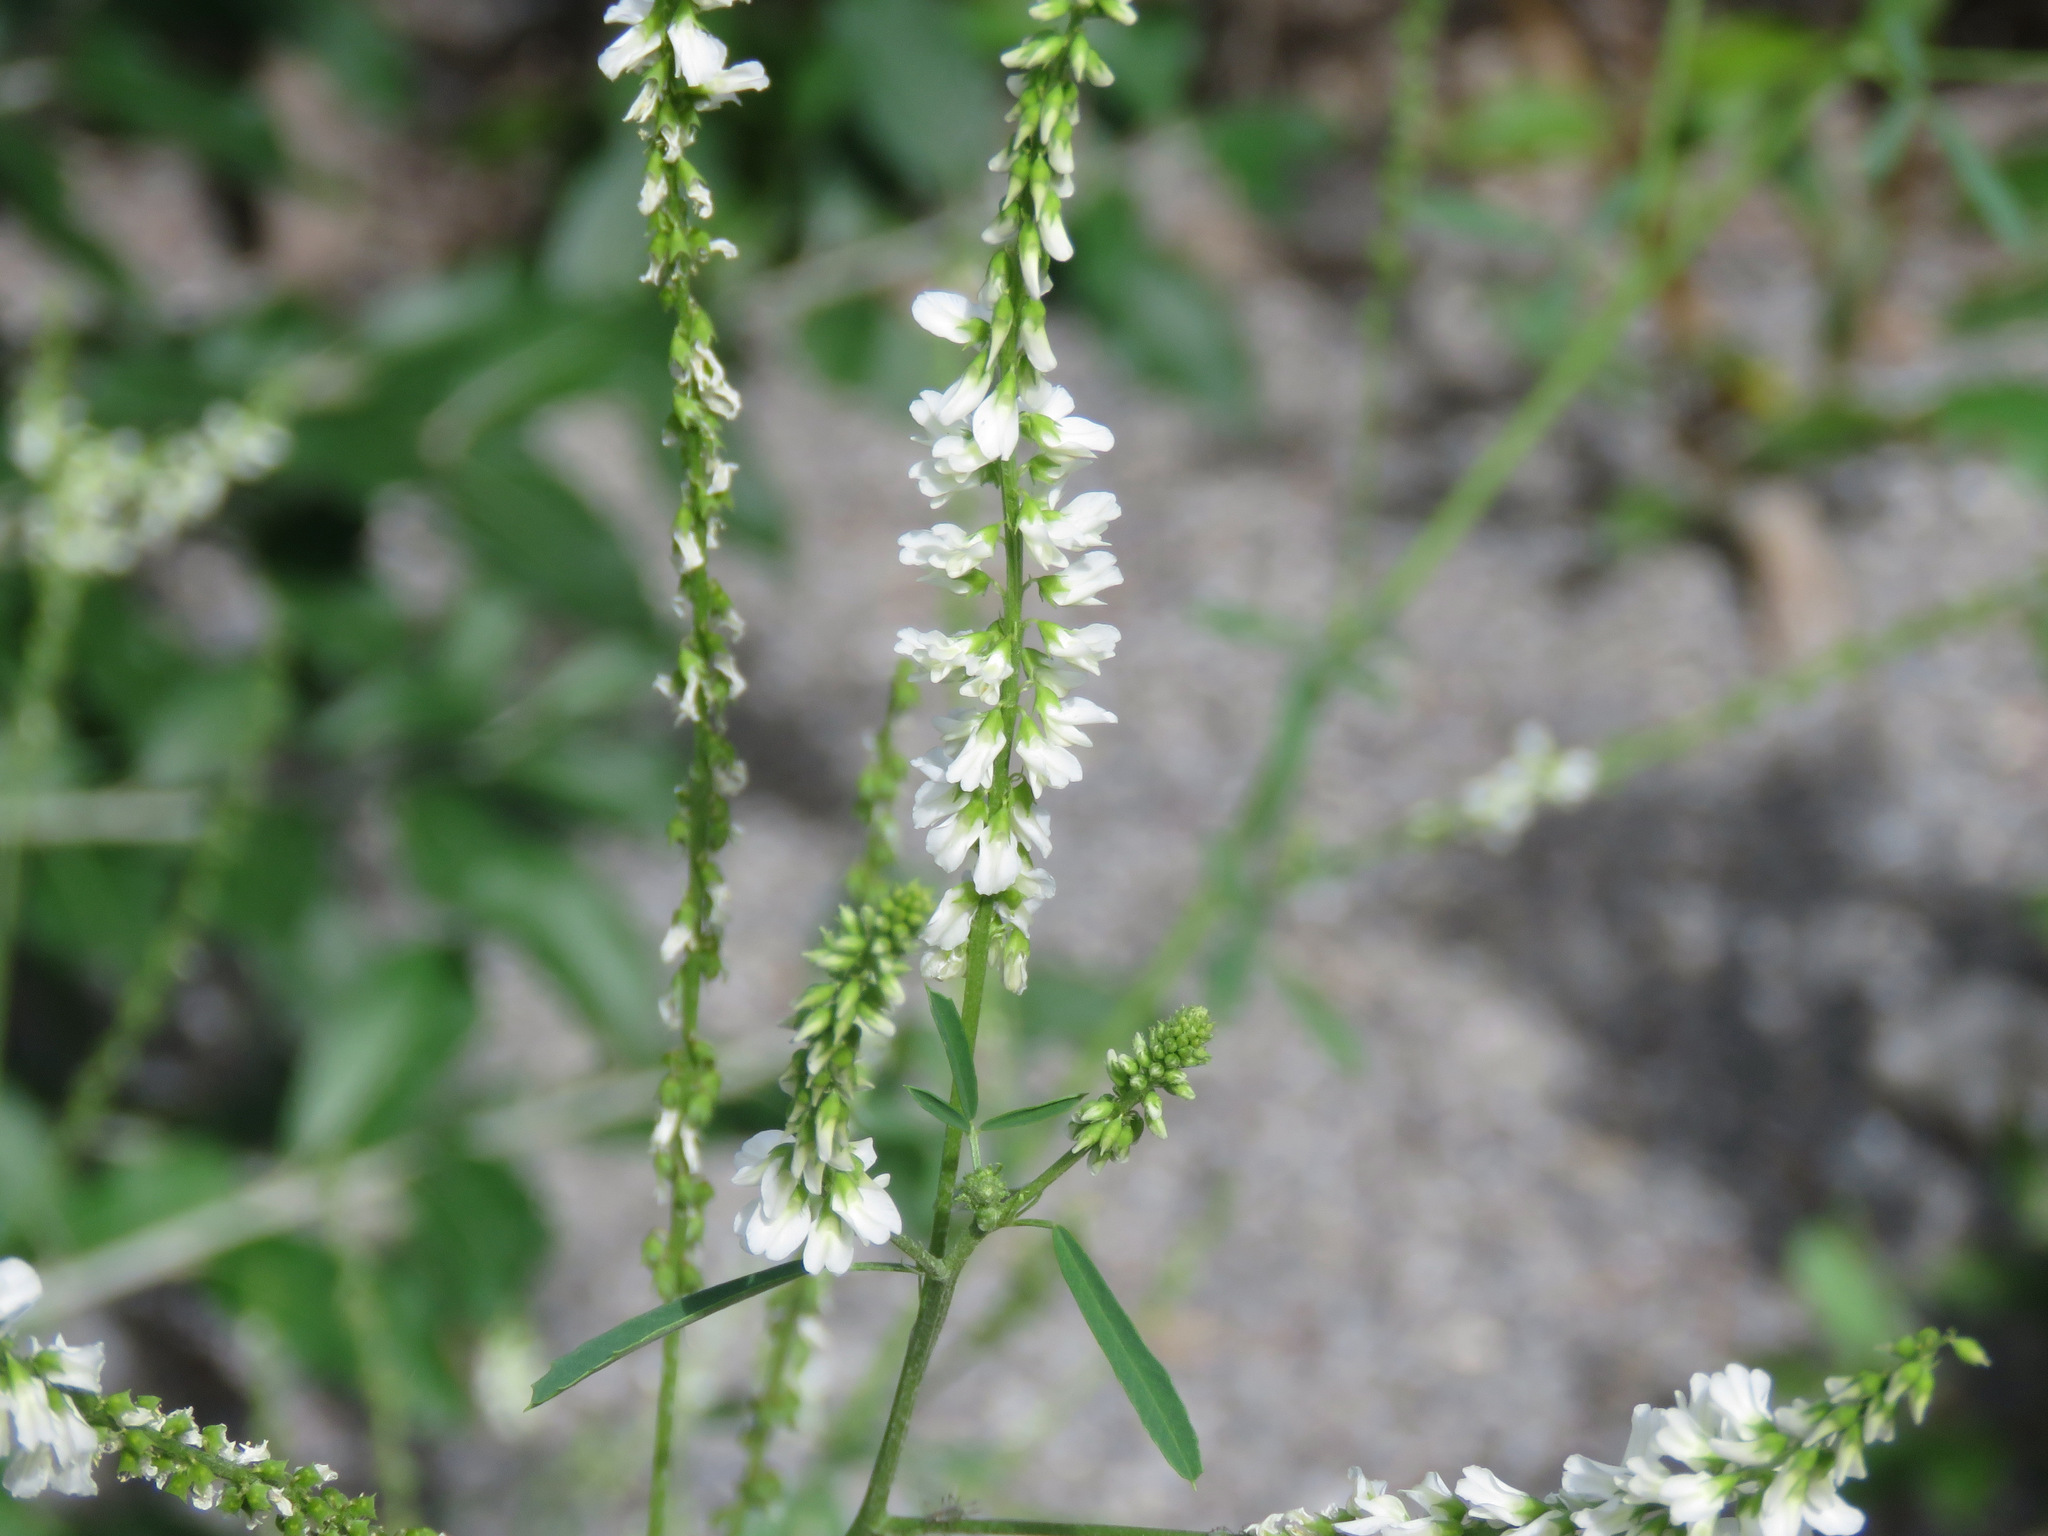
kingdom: Plantae
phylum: Tracheophyta
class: Magnoliopsida
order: Fabales
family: Fabaceae
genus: Melilotus
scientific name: Melilotus albus
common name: White melilot
